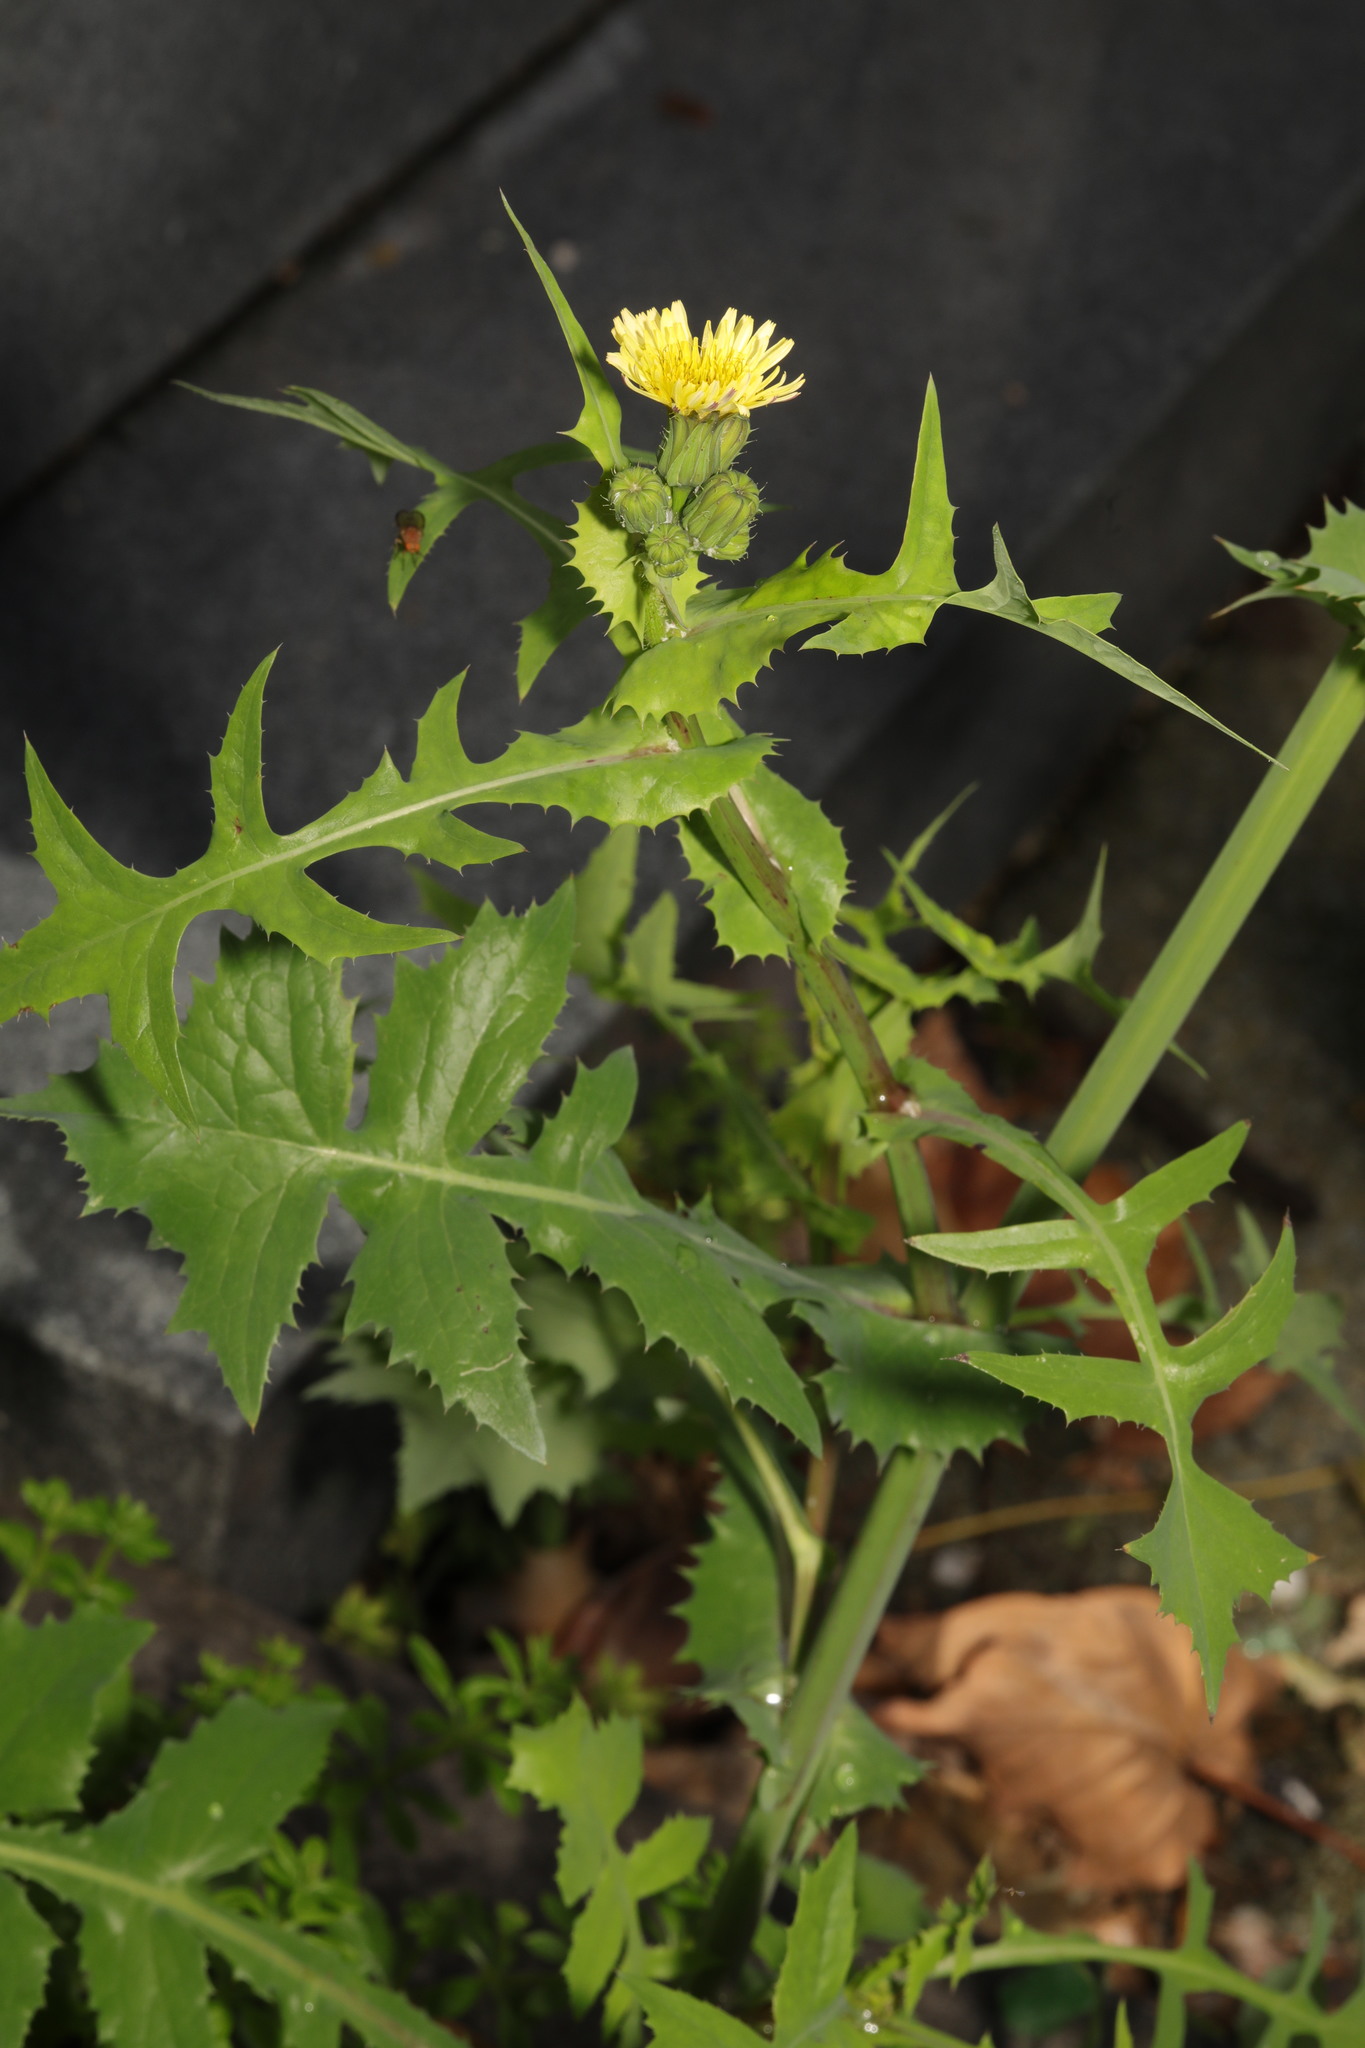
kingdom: Plantae
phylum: Tracheophyta
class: Magnoliopsida
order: Asterales
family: Asteraceae
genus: Sonchus
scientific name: Sonchus oleraceus
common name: Common sowthistle
